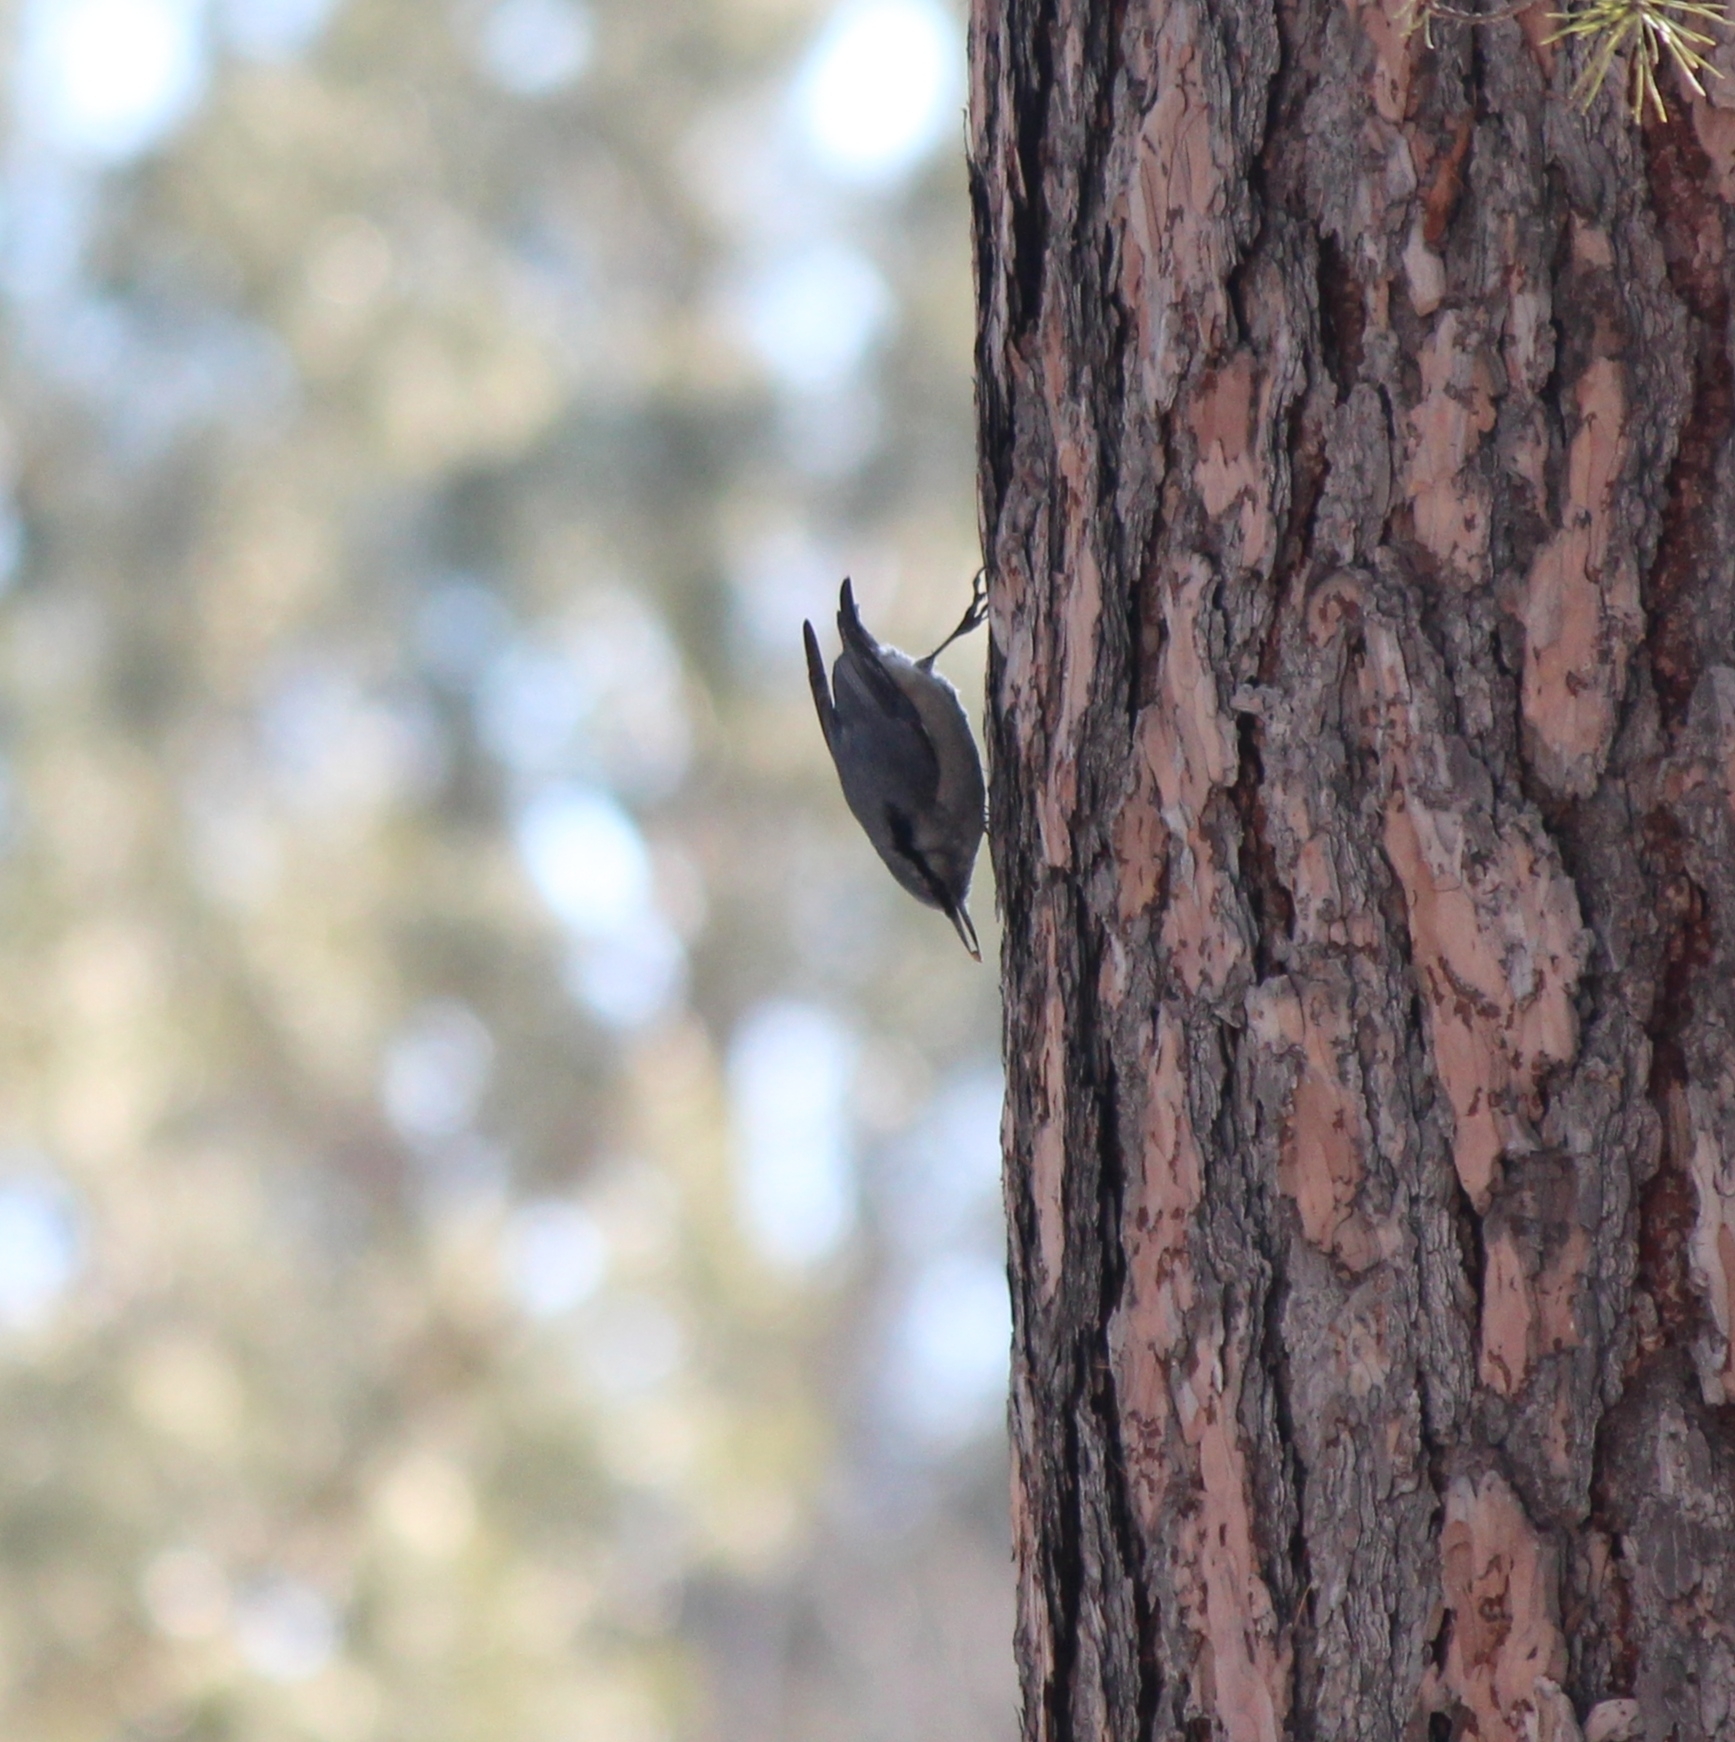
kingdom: Animalia
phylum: Chordata
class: Aves
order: Passeriformes
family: Sittidae
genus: Sitta
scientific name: Sitta europaea
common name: Eurasian nuthatch
